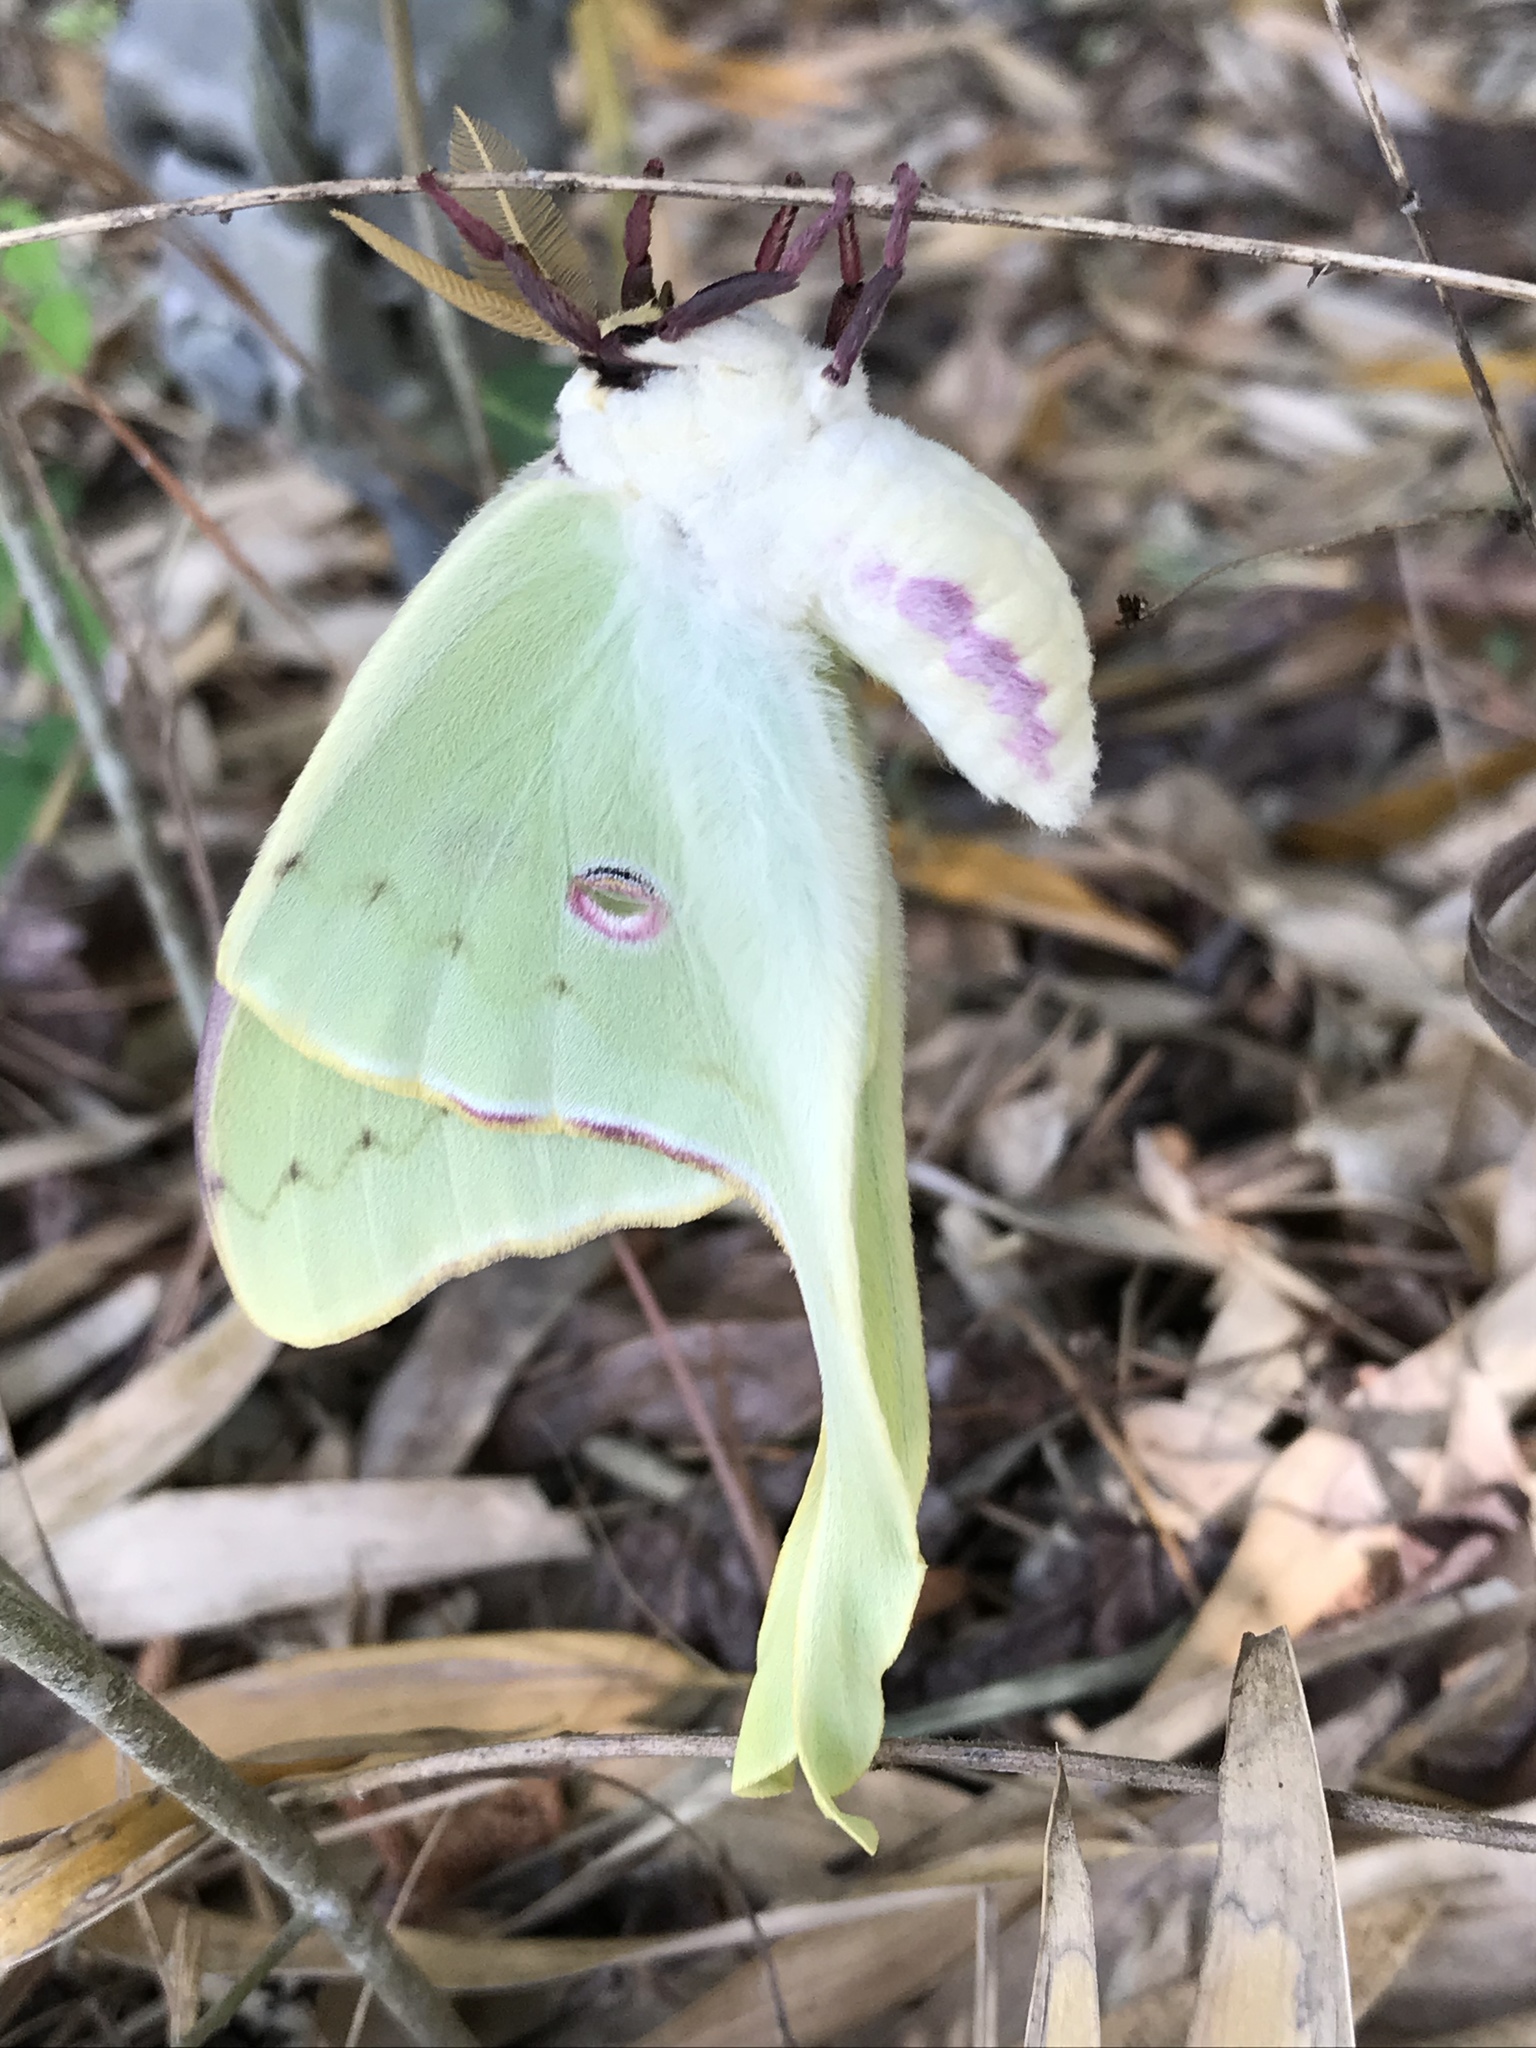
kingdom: Animalia
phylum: Arthropoda
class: Insecta
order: Lepidoptera
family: Saturniidae
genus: Actias
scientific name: Actias luna
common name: Luna moth
